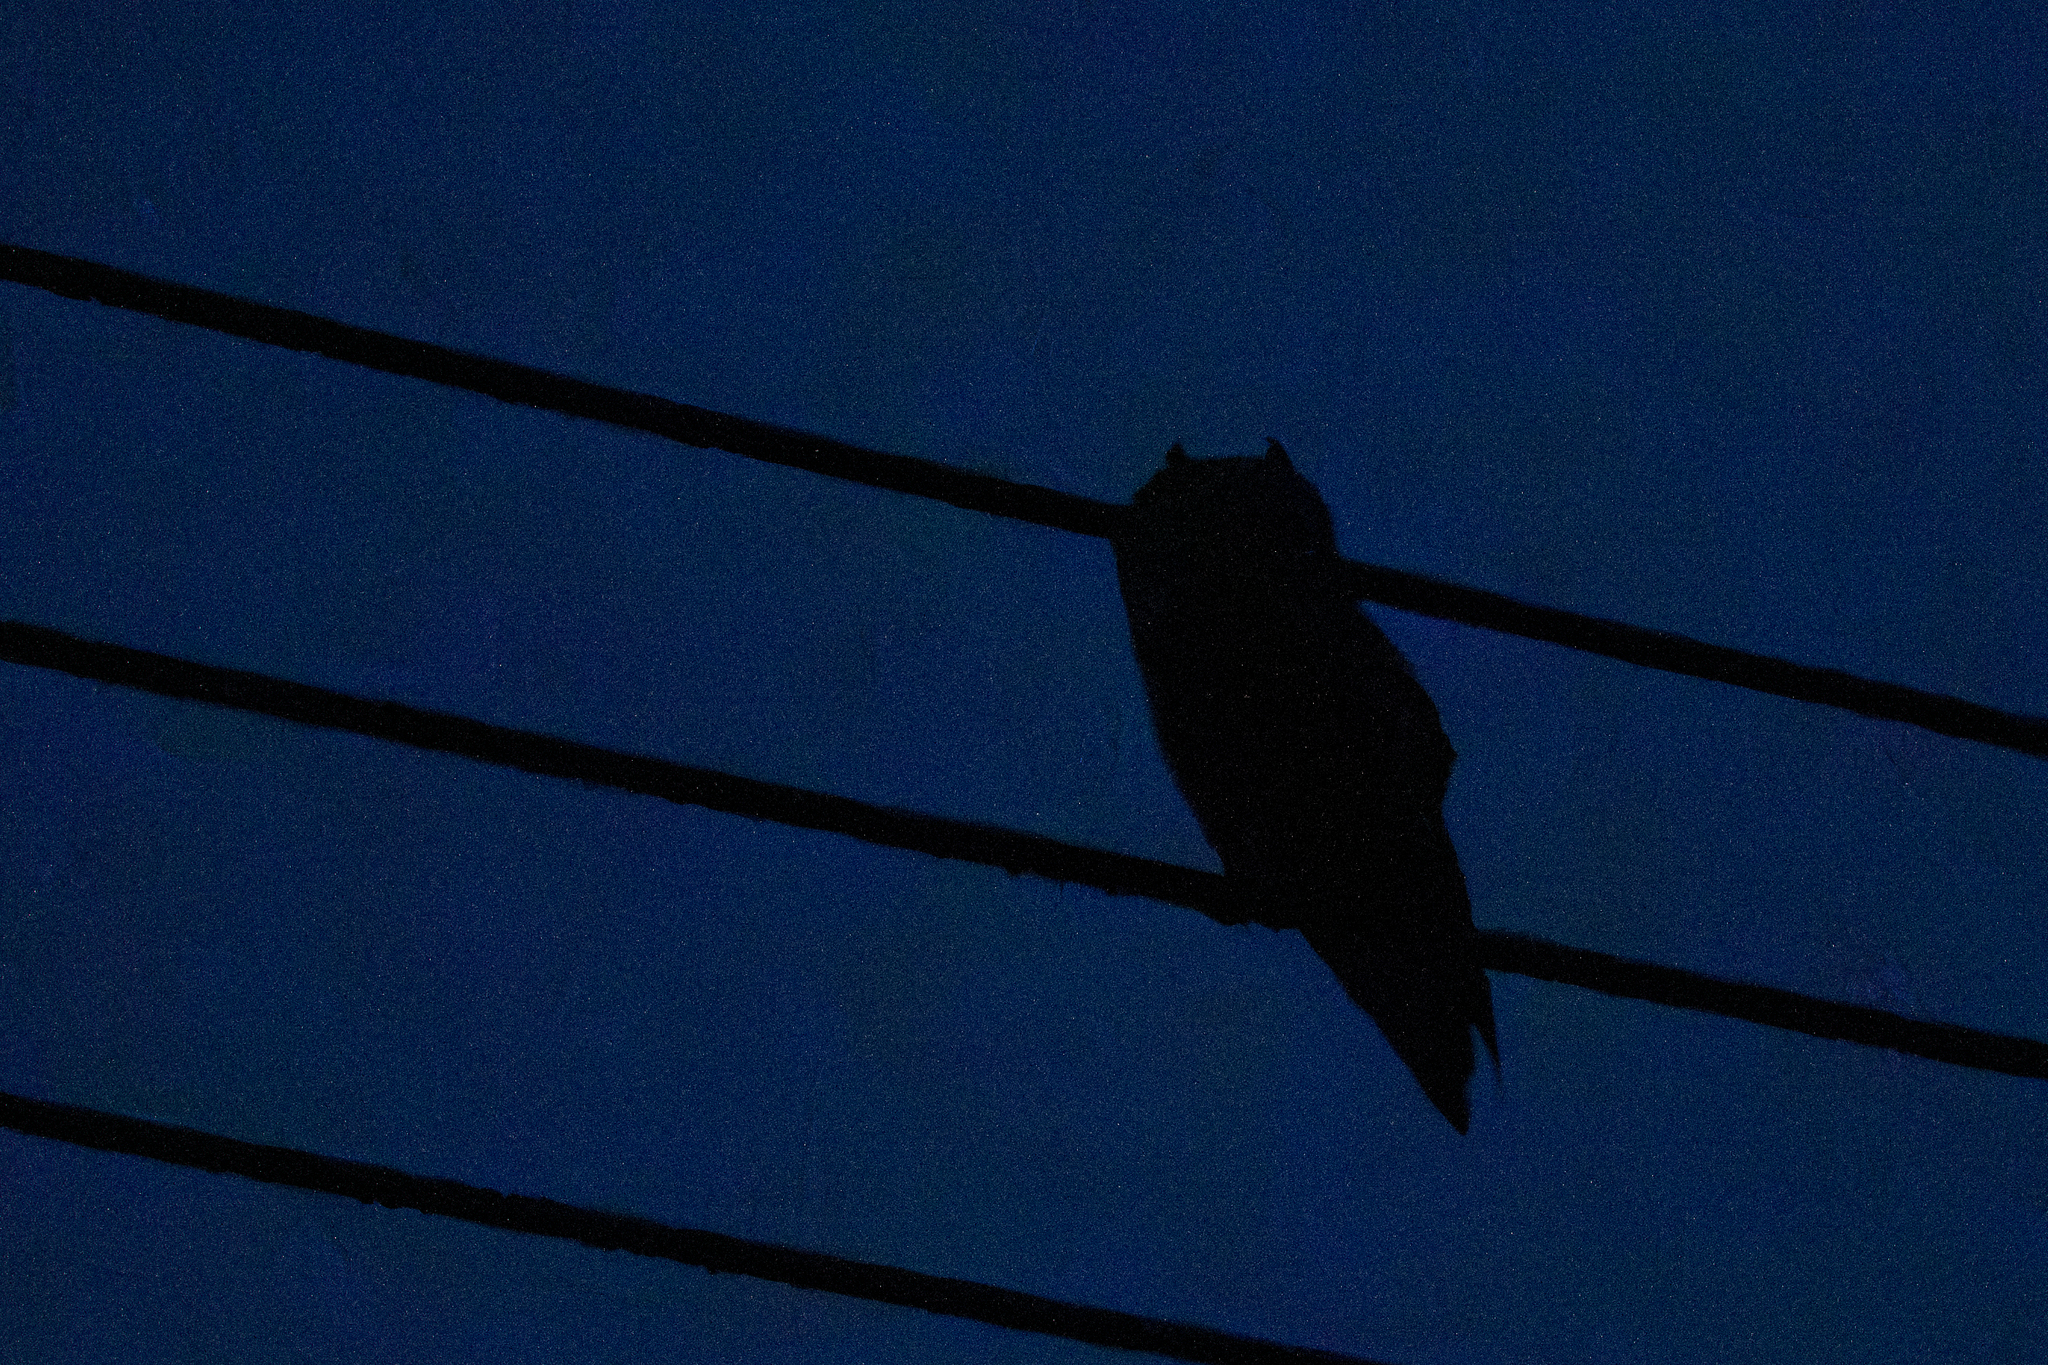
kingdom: Animalia
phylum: Chordata
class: Aves
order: Strigiformes
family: Strigidae
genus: Asio
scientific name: Asio otus
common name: Long-eared owl
